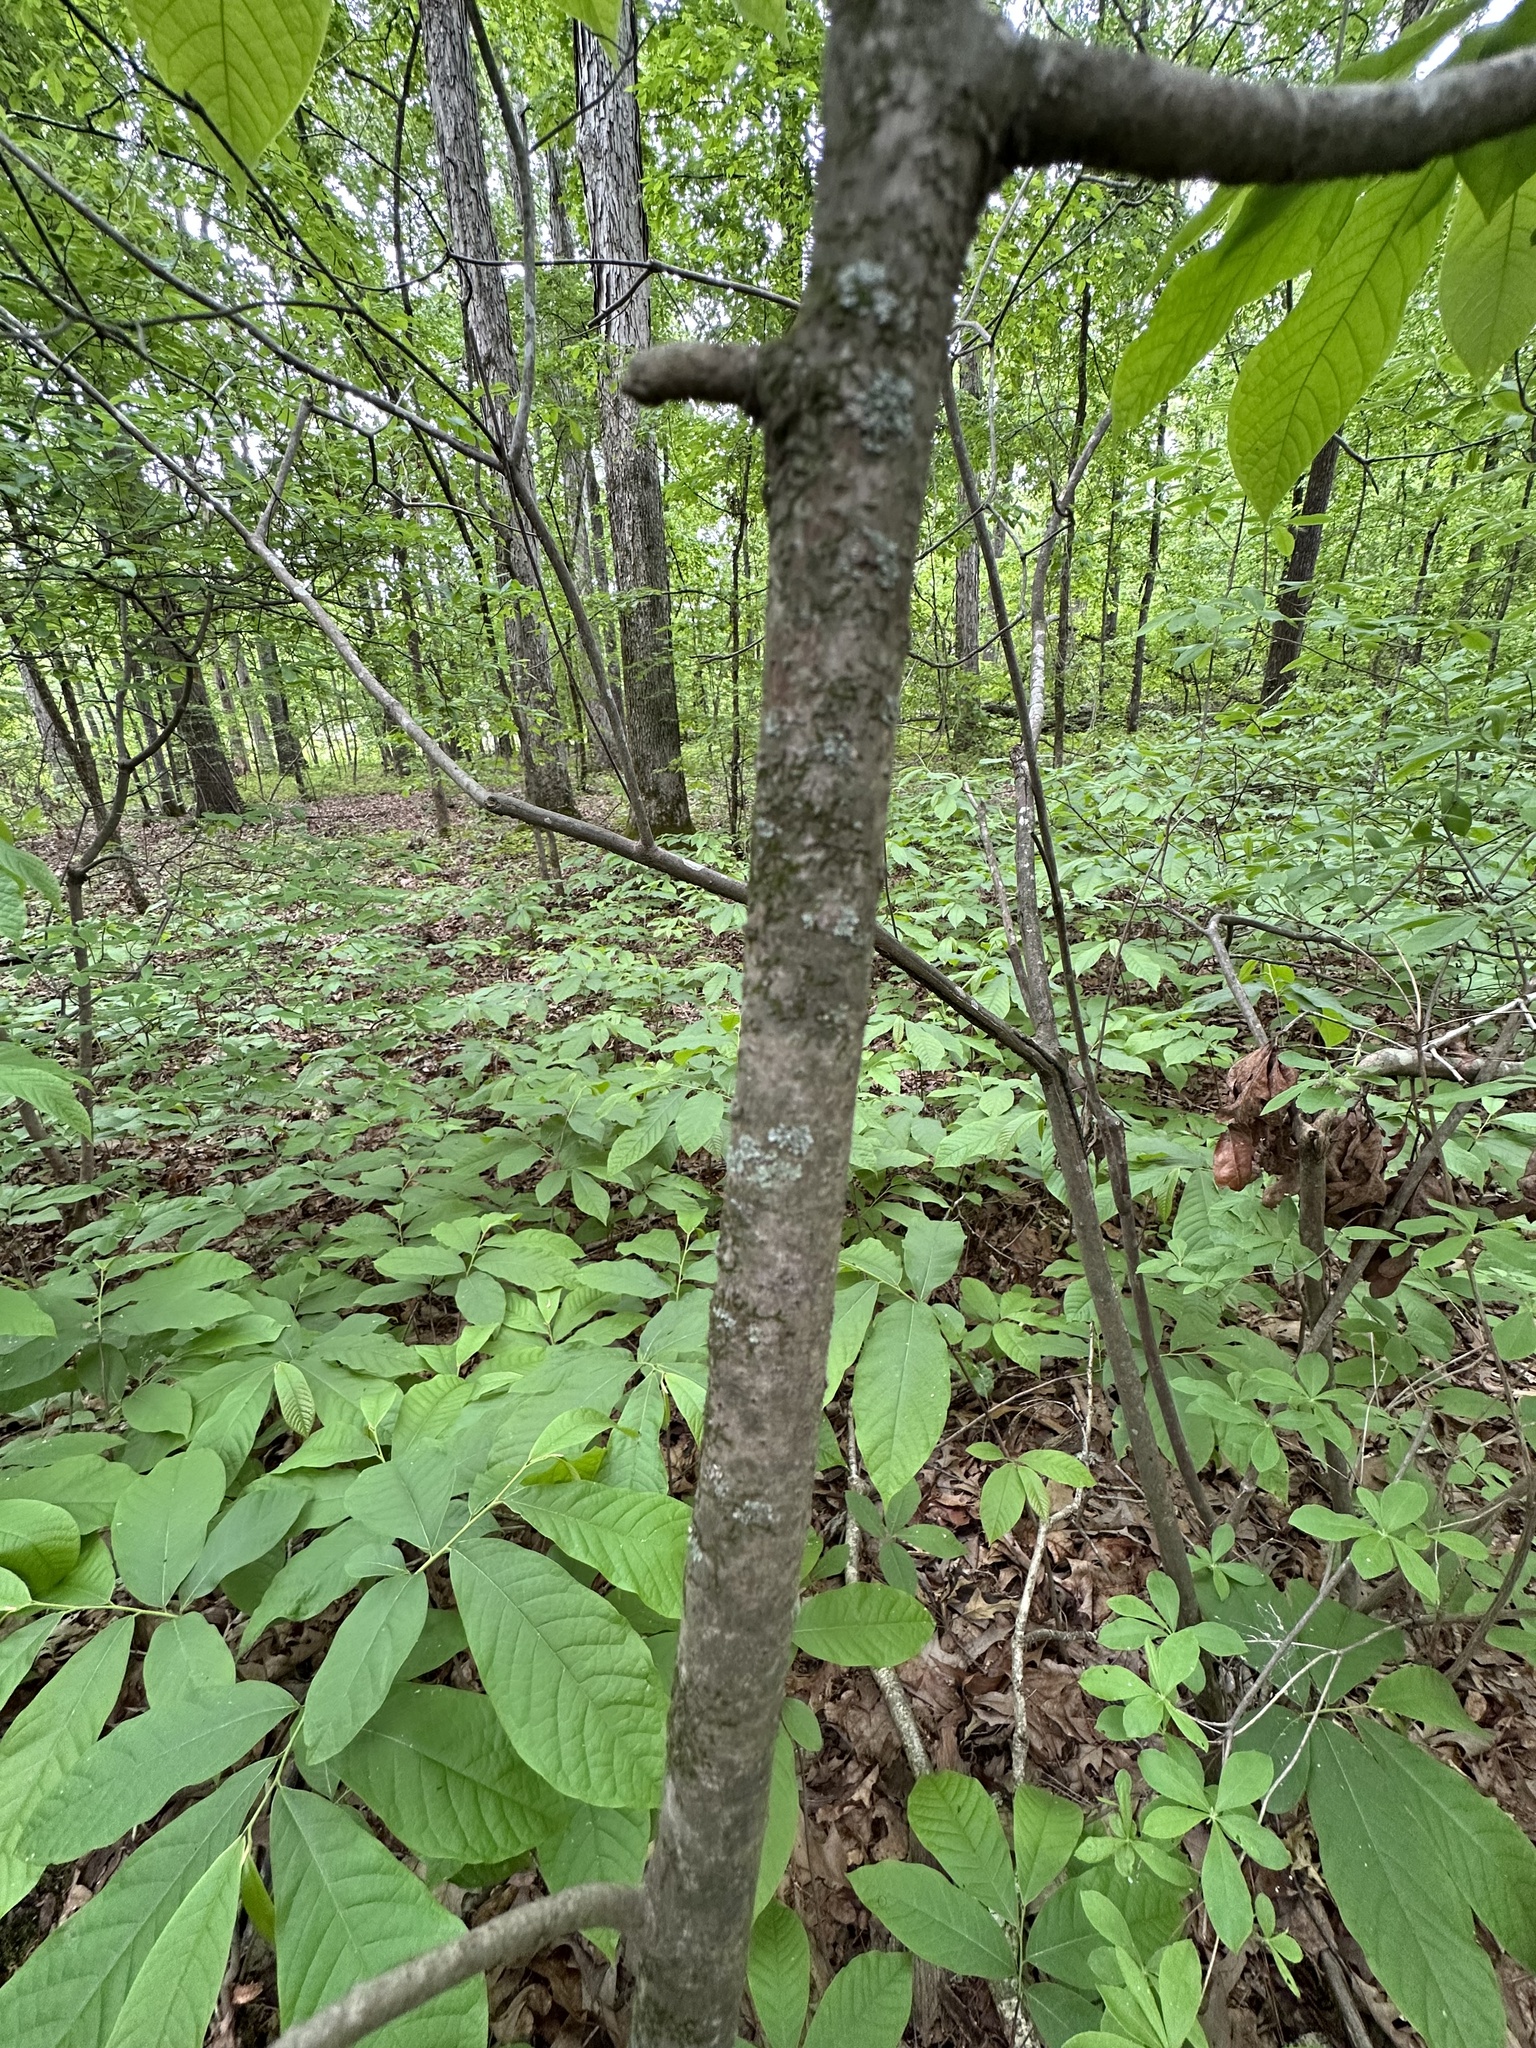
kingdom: Plantae
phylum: Tracheophyta
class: Magnoliopsida
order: Magnoliales
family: Annonaceae
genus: Asimina
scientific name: Asimina triloba
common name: Dog-banana
